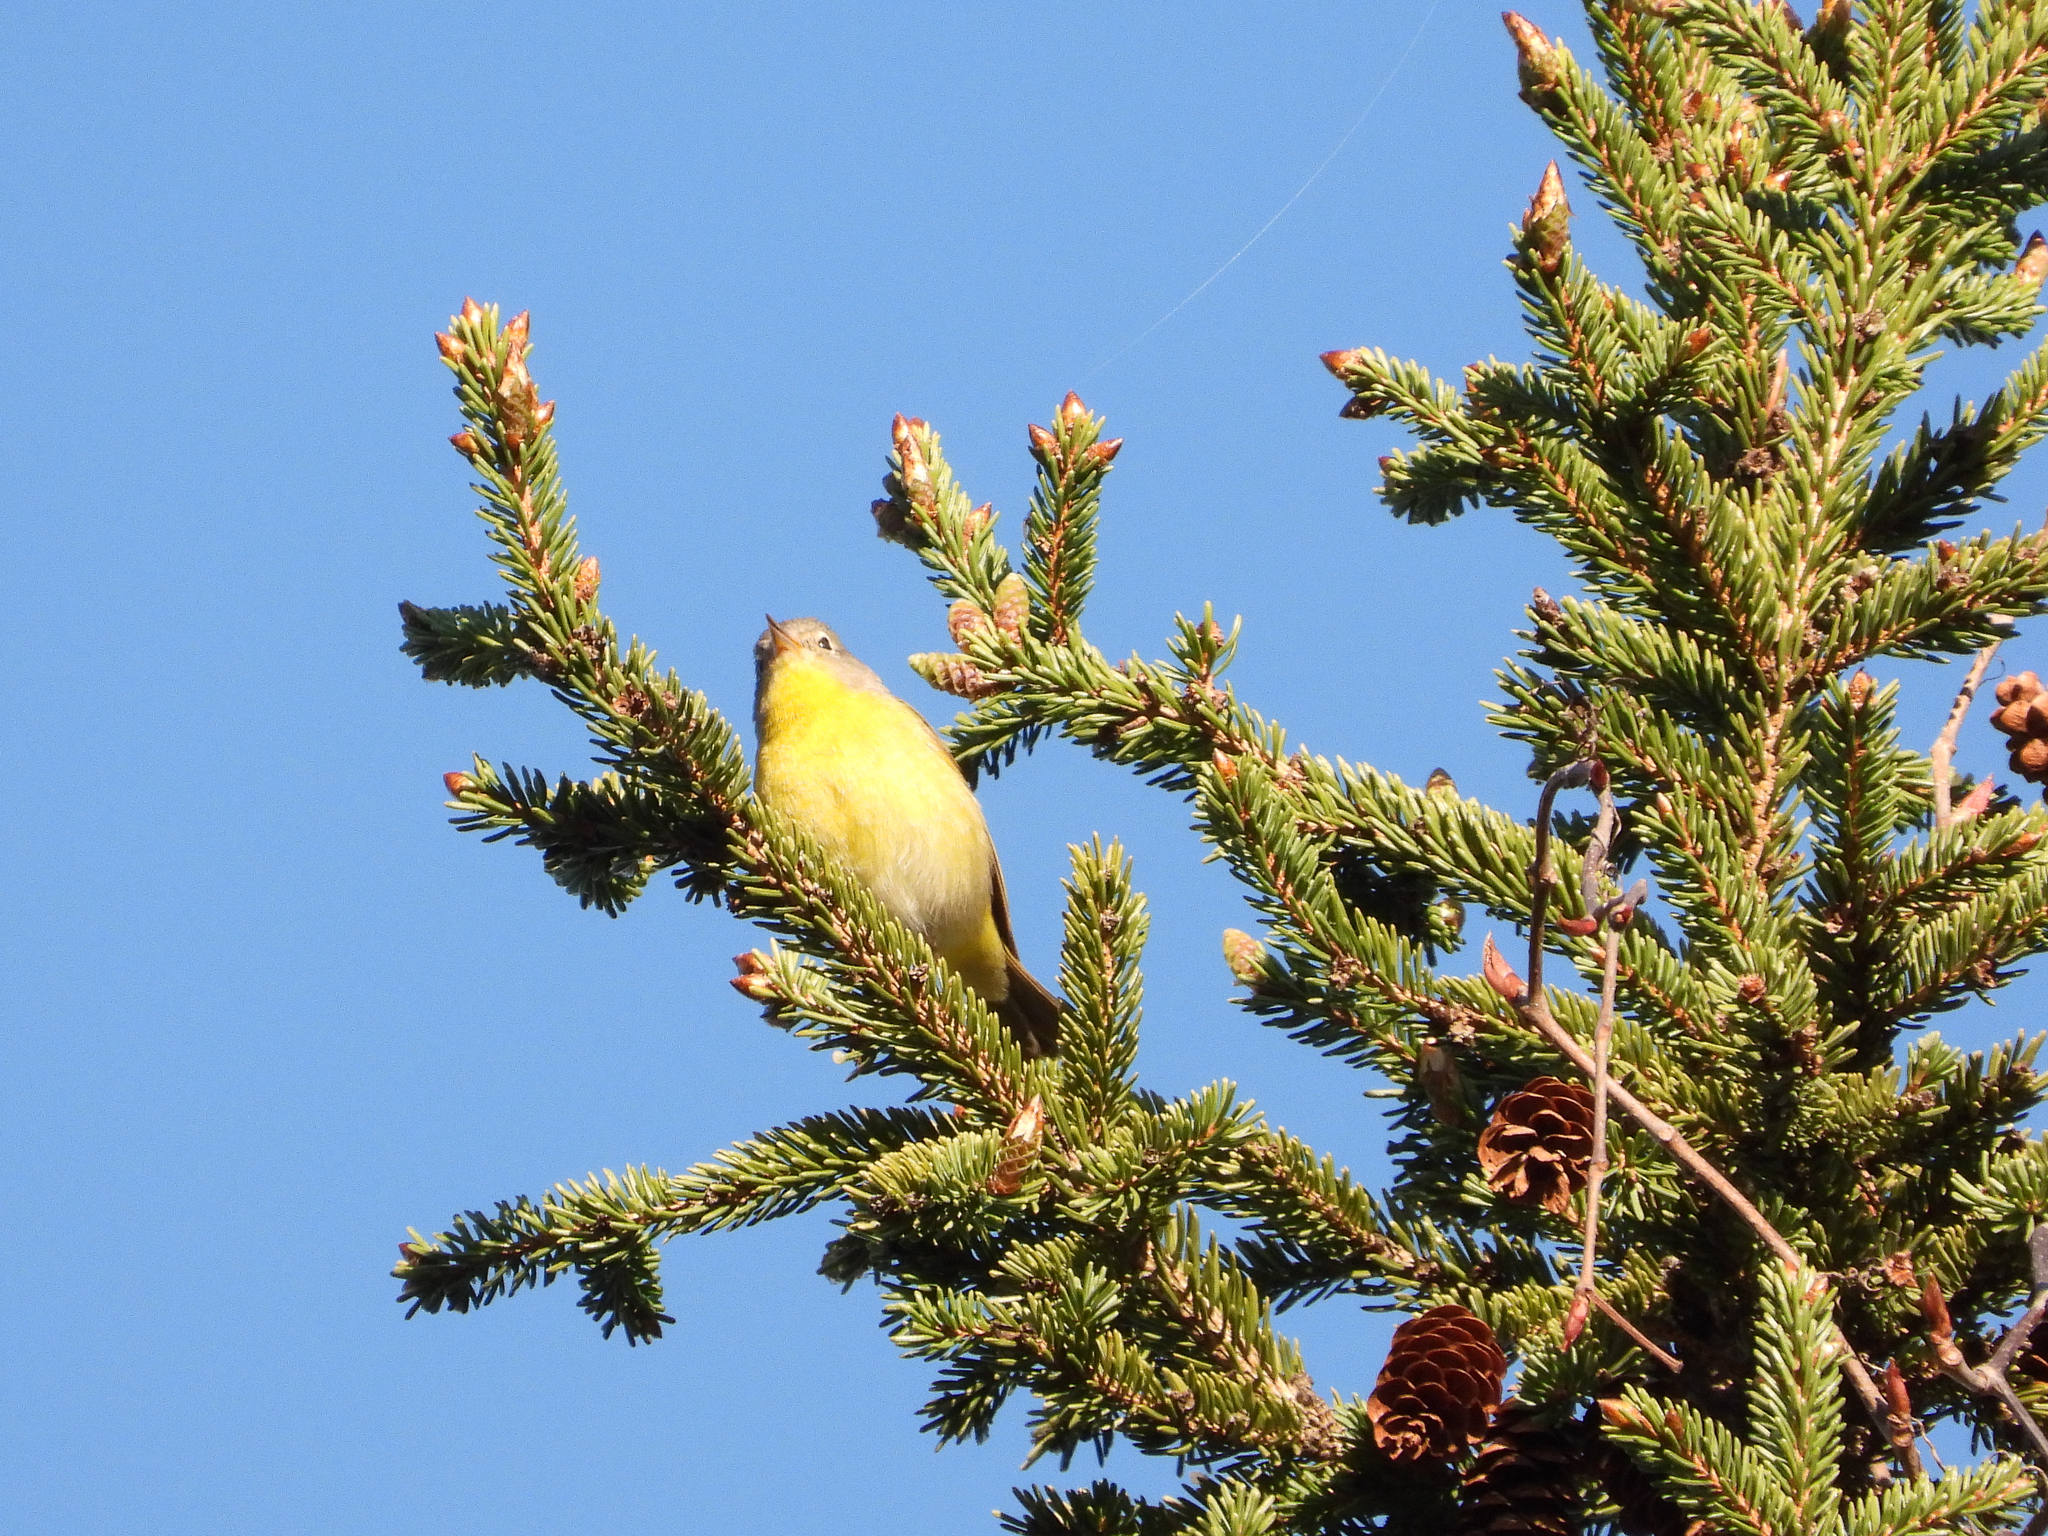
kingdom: Animalia
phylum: Chordata
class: Aves
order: Passeriformes
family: Parulidae
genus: Leiothlypis
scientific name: Leiothlypis ruficapilla
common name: Nashville warbler
